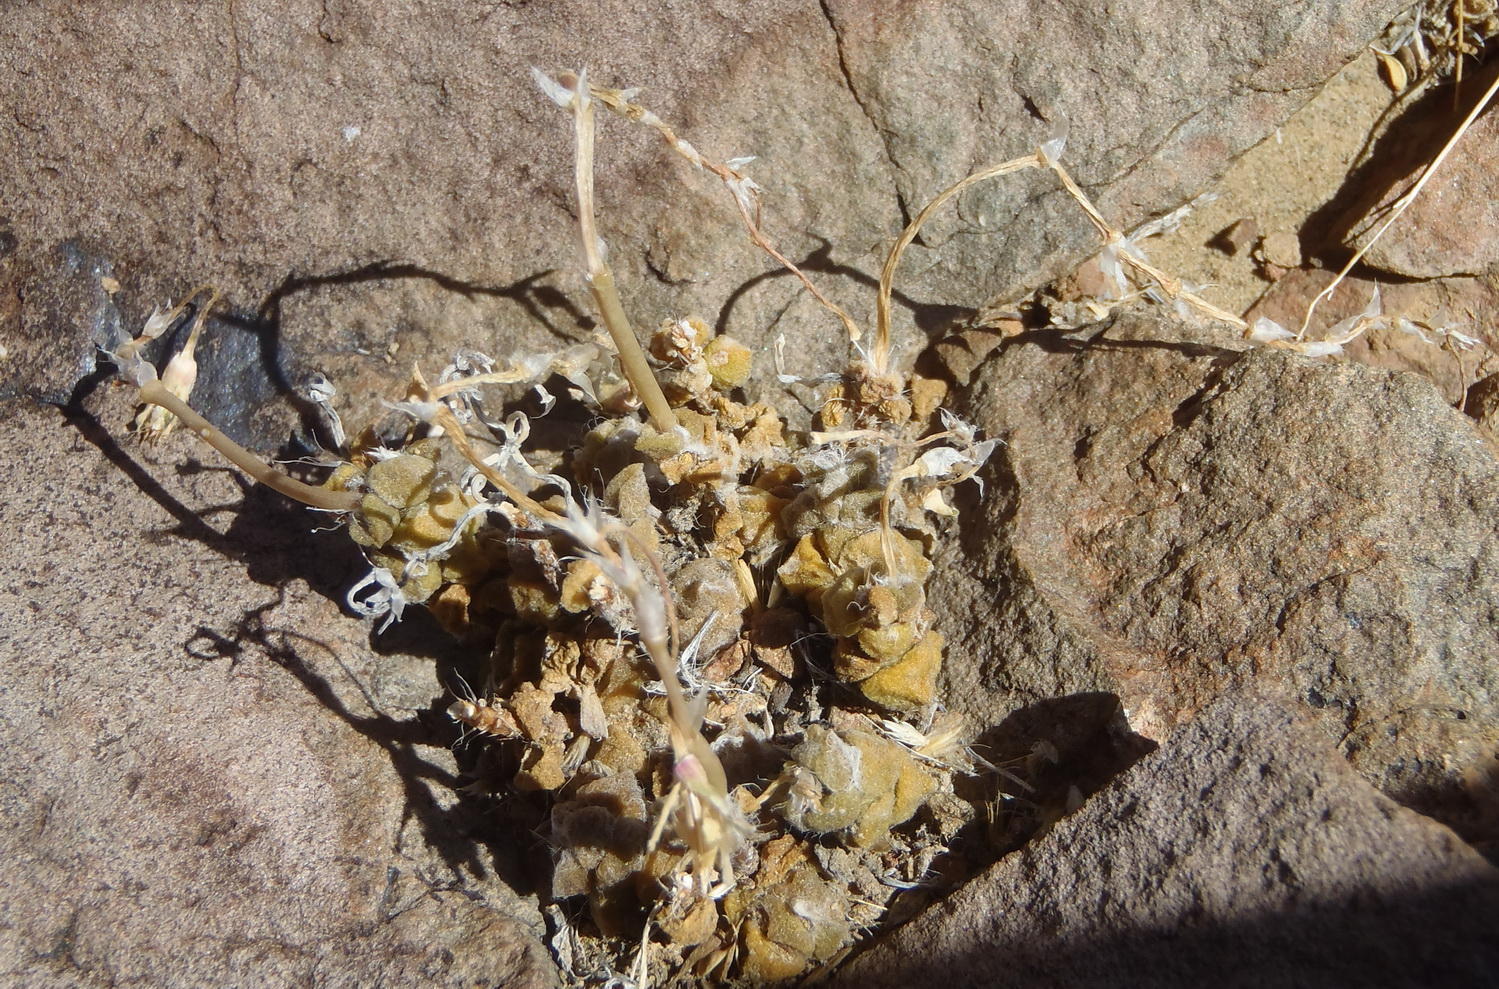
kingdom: Plantae
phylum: Tracheophyta
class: Magnoliopsida
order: Caryophyllales
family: Anacampserotaceae
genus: Anacampseros
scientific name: Anacampseros arachnoides
